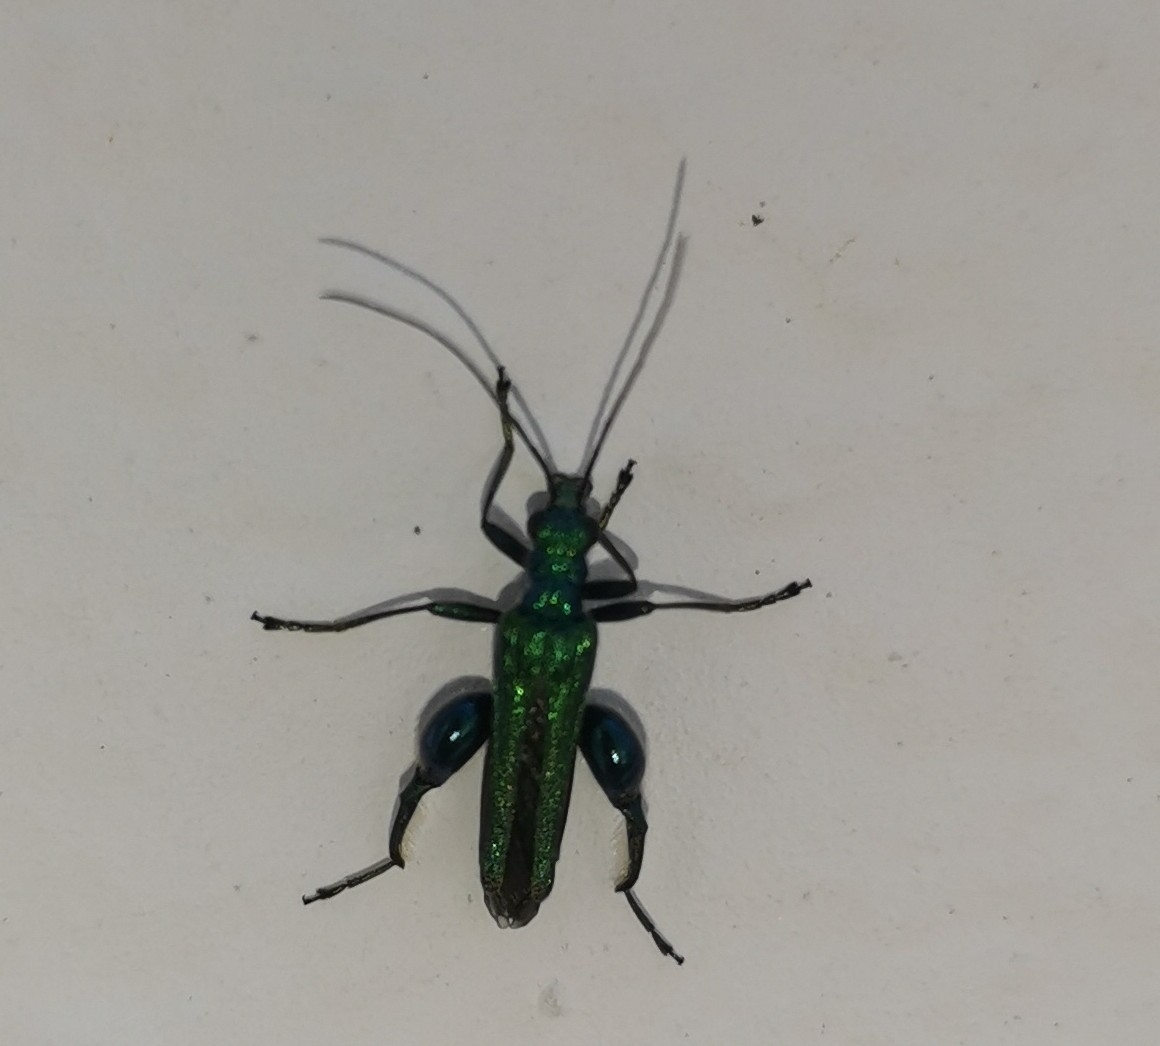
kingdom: Animalia
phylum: Arthropoda
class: Insecta
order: Coleoptera
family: Oedemeridae
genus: Oedemera
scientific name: Oedemera nobilis
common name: Swollen-thighed beetle
